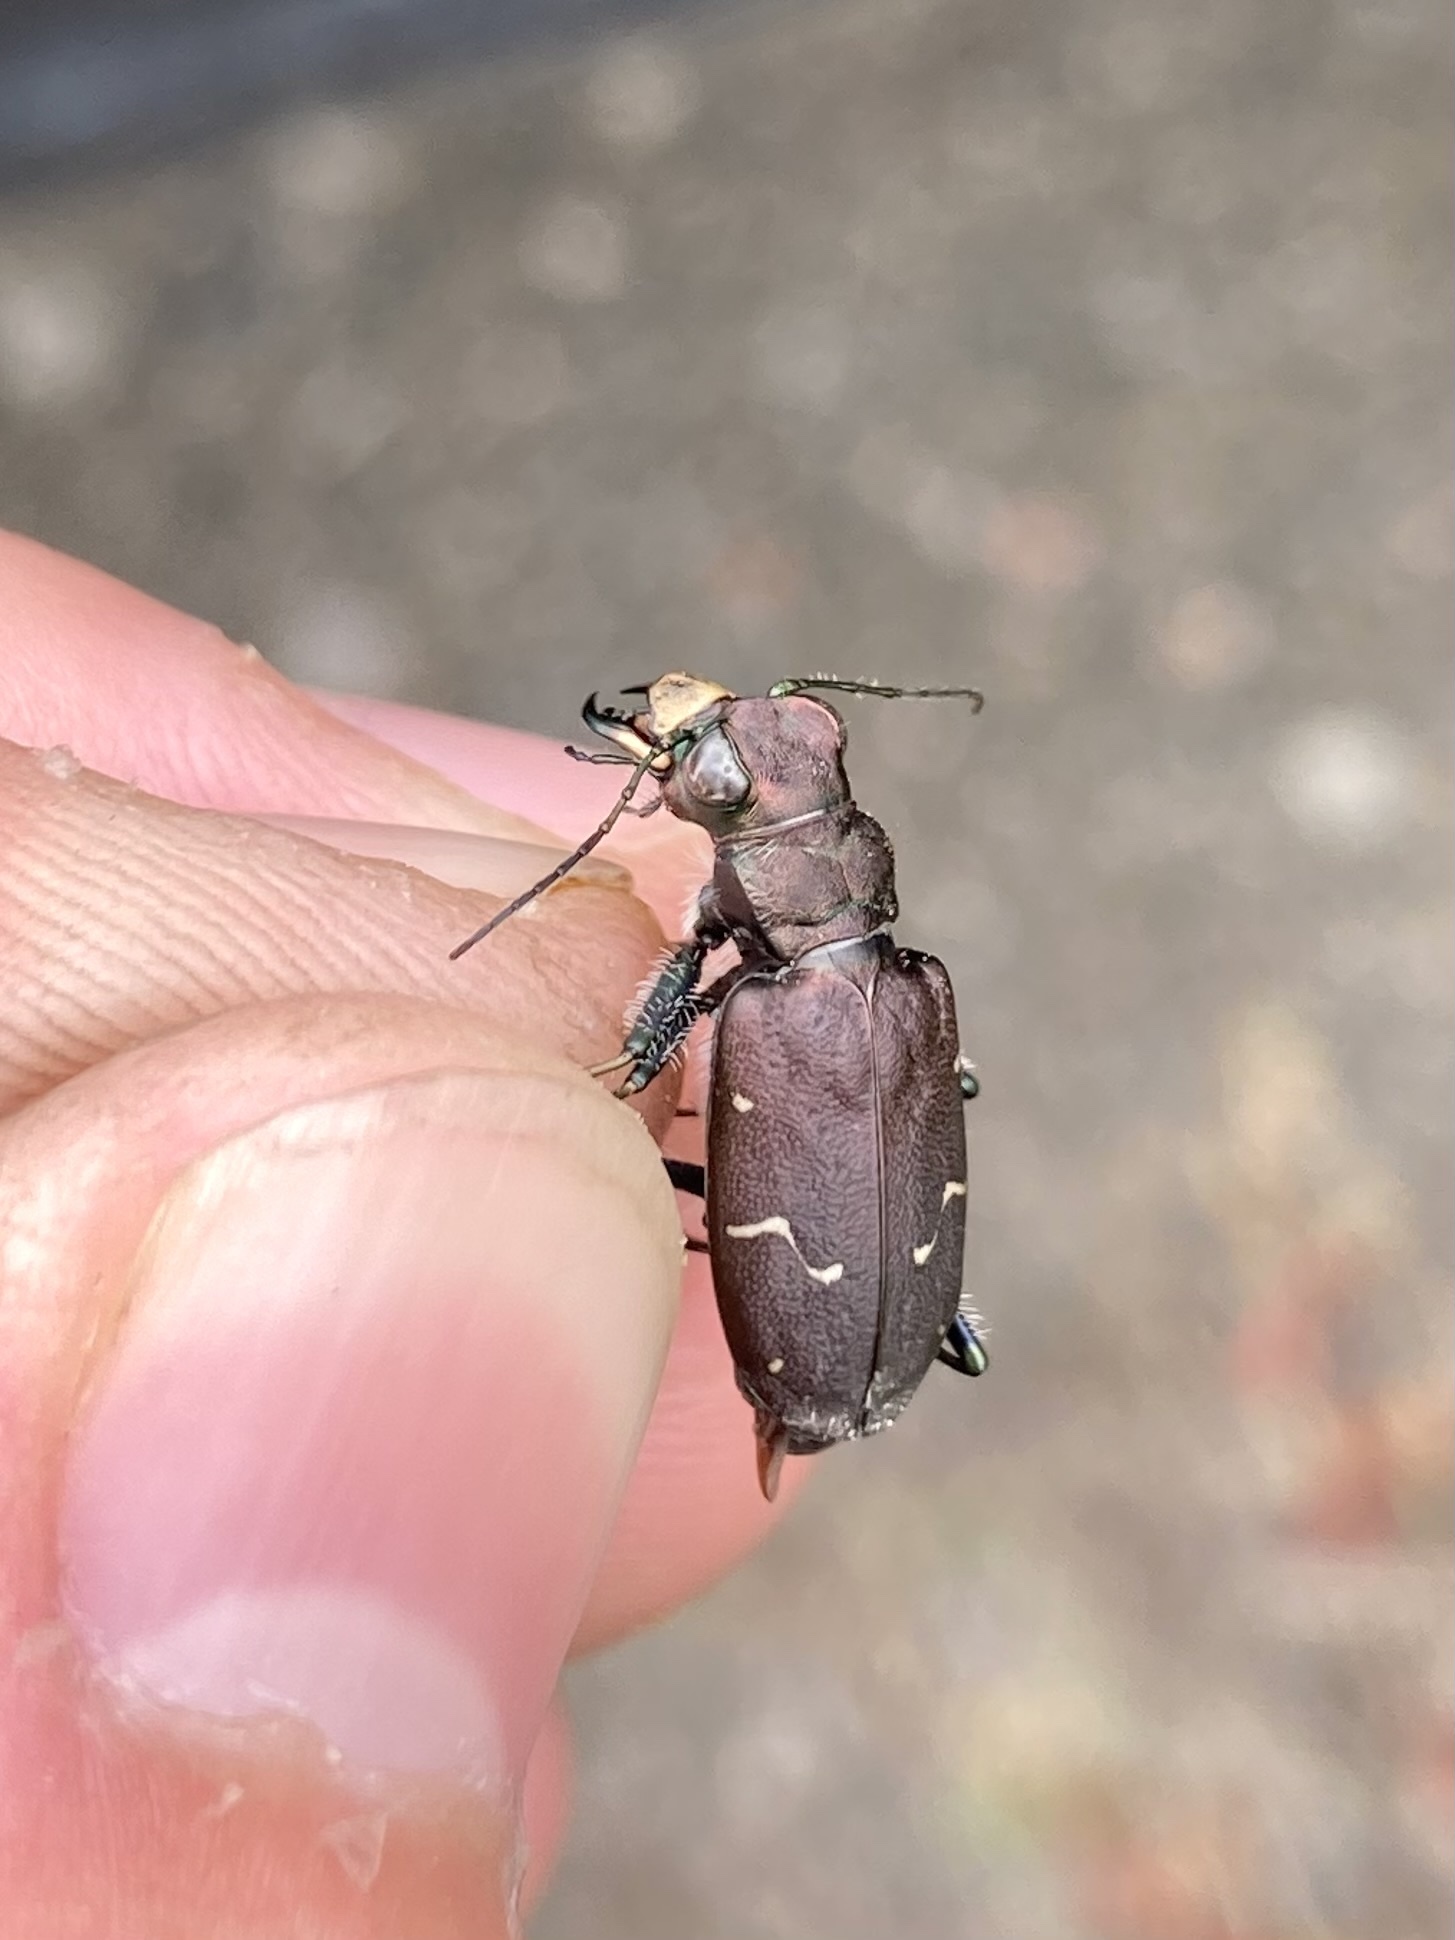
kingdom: Animalia
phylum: Arthropoda
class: Insecta
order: Coleoptera
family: Carabidae
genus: Cicindela
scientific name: Cicindela longilabris
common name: Boreal long-lipped tiger beetle
